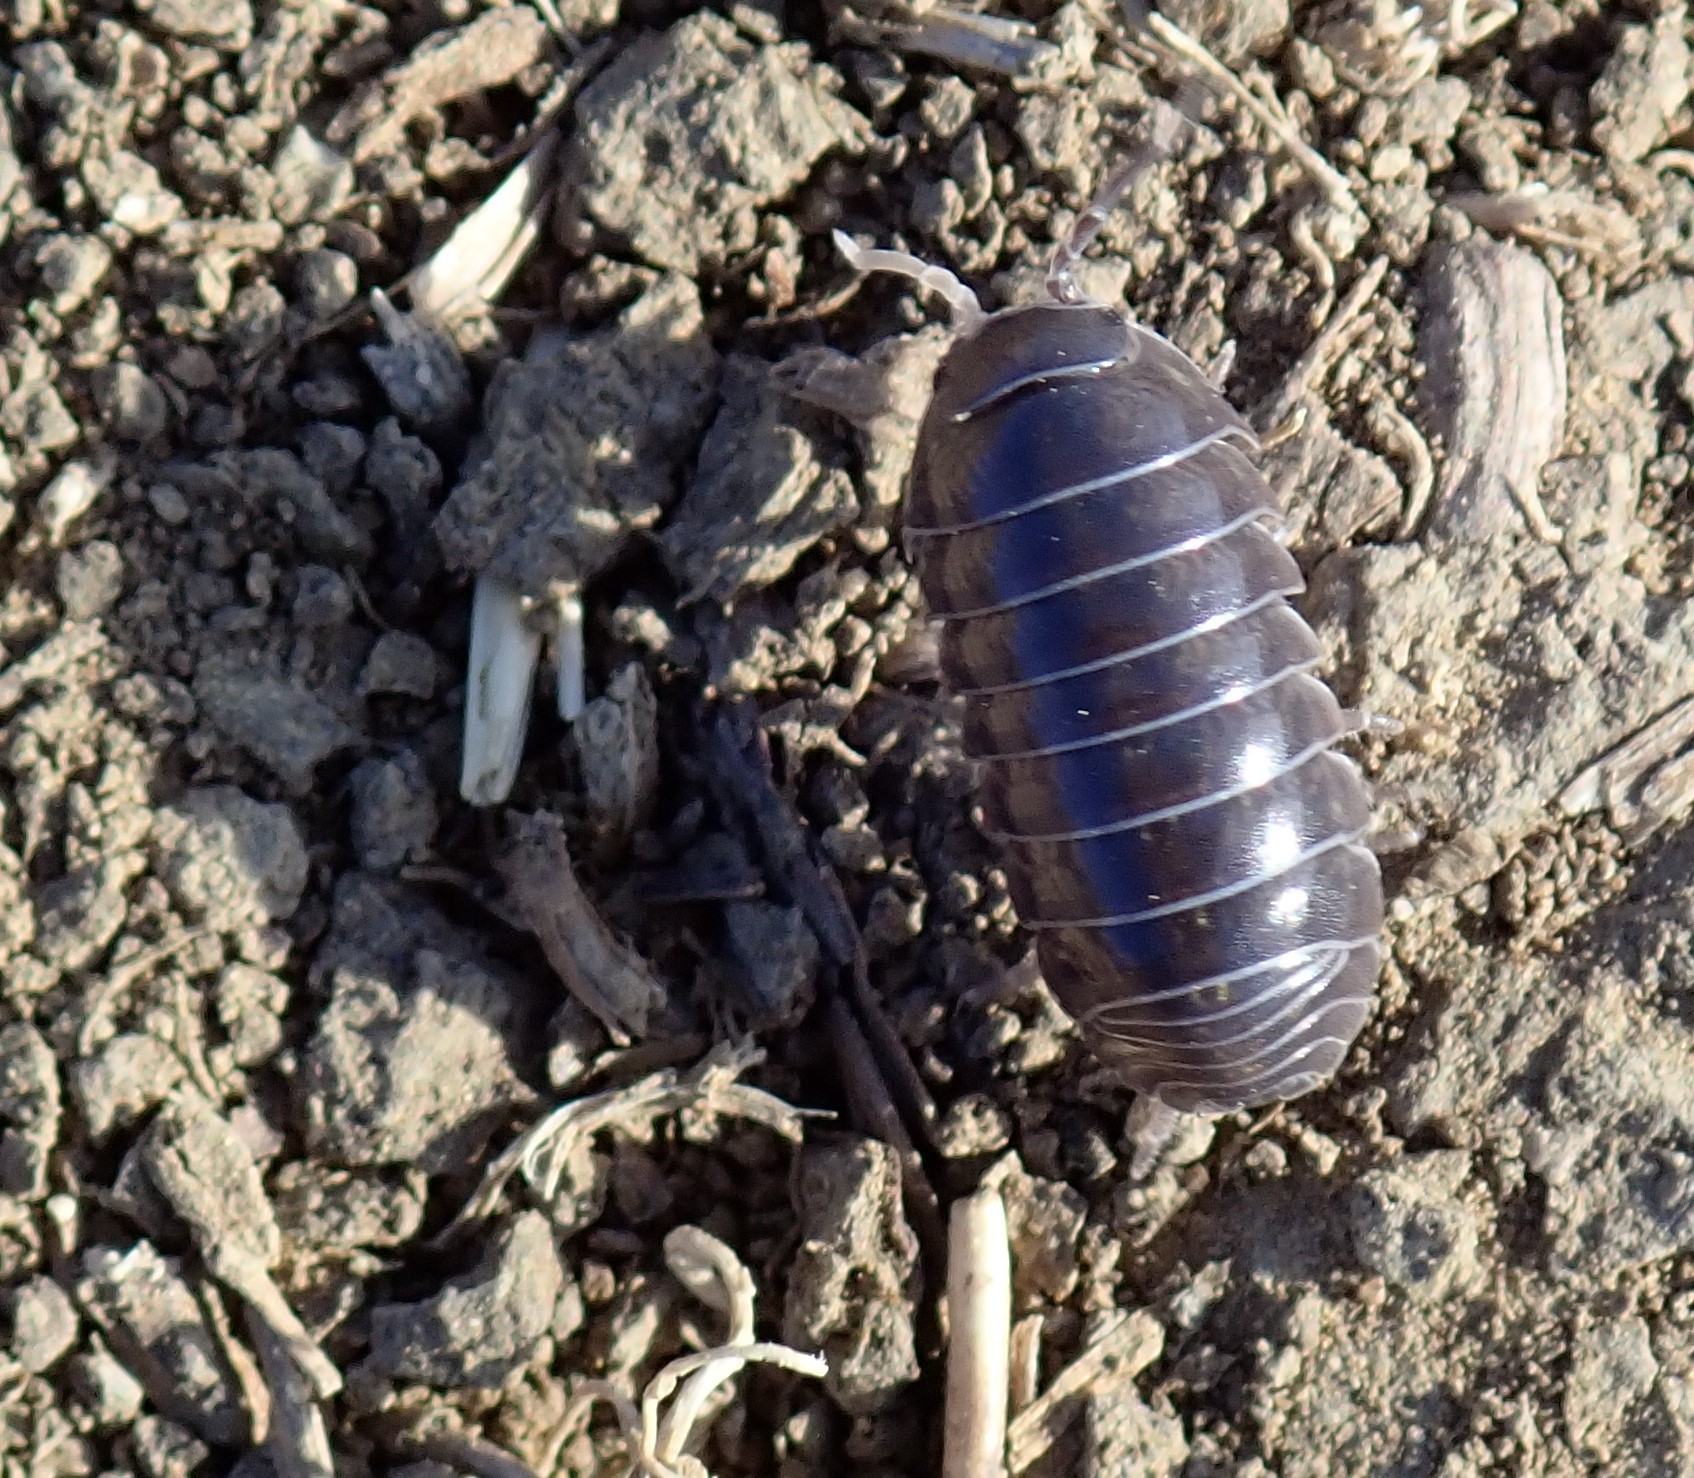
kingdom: Animalia
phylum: Arthropoda
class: Malacostraca
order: Isopoda
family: Armadillidiidae
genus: Armadillidium
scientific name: Armadillidium vulgare
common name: Common pill woodlouse
